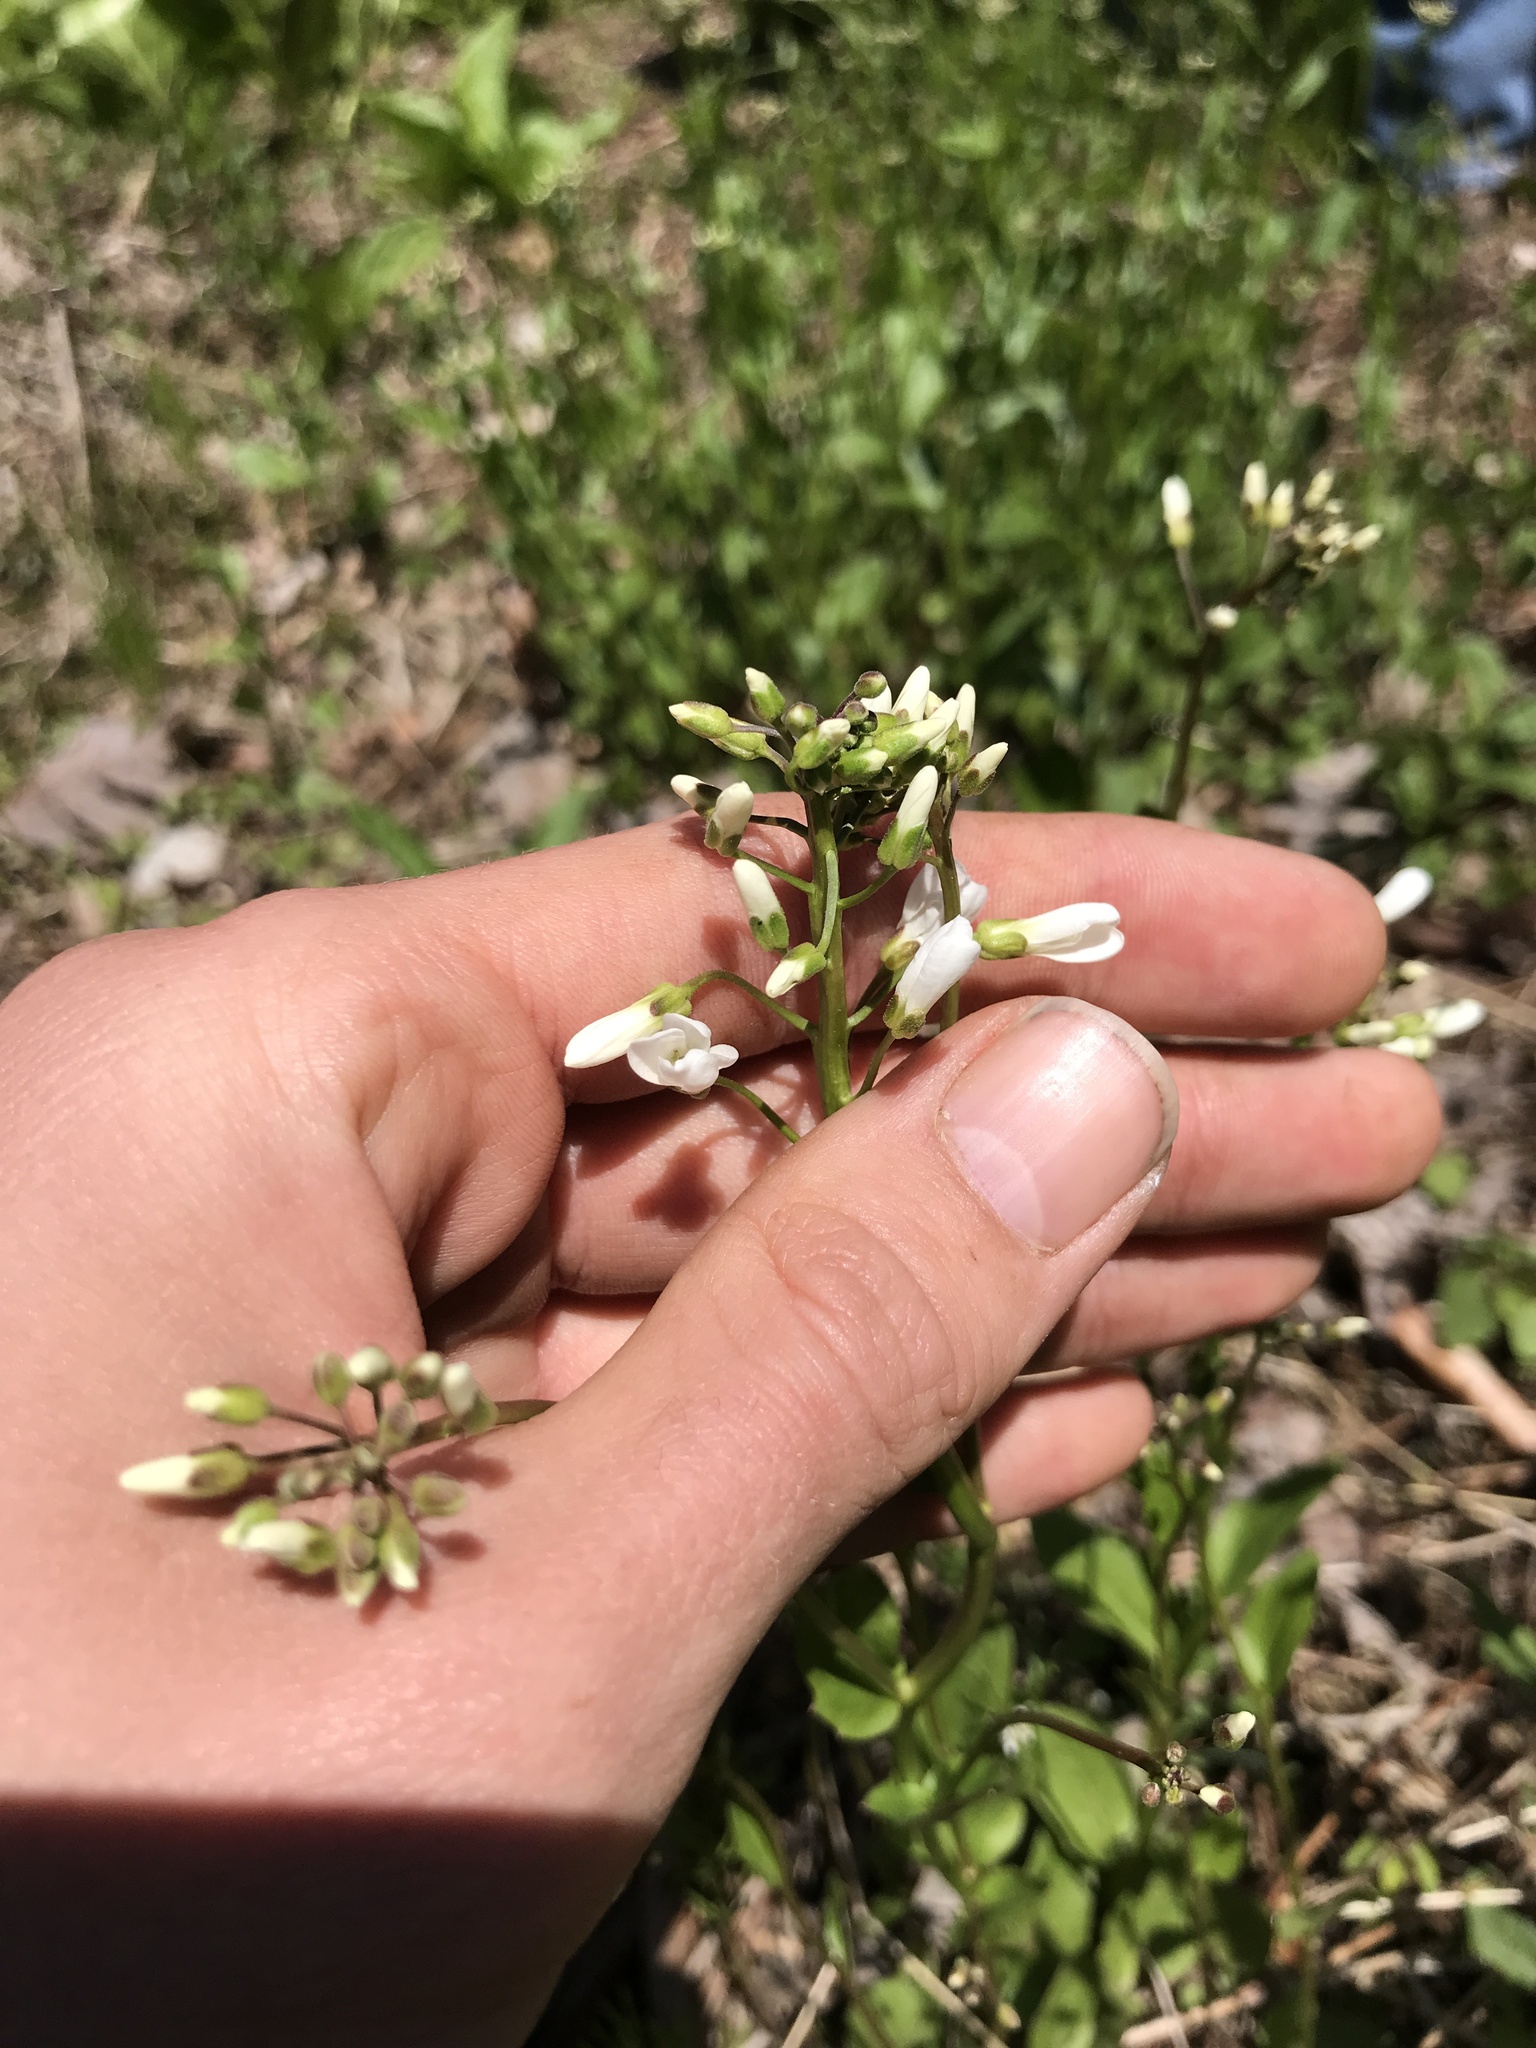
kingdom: Plantae
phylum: Tracheophyta
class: Magnoliopsida
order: Brassicales
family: Brassicaceae
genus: Cardamine
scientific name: Cardamine bulbosa
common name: Spring cress
